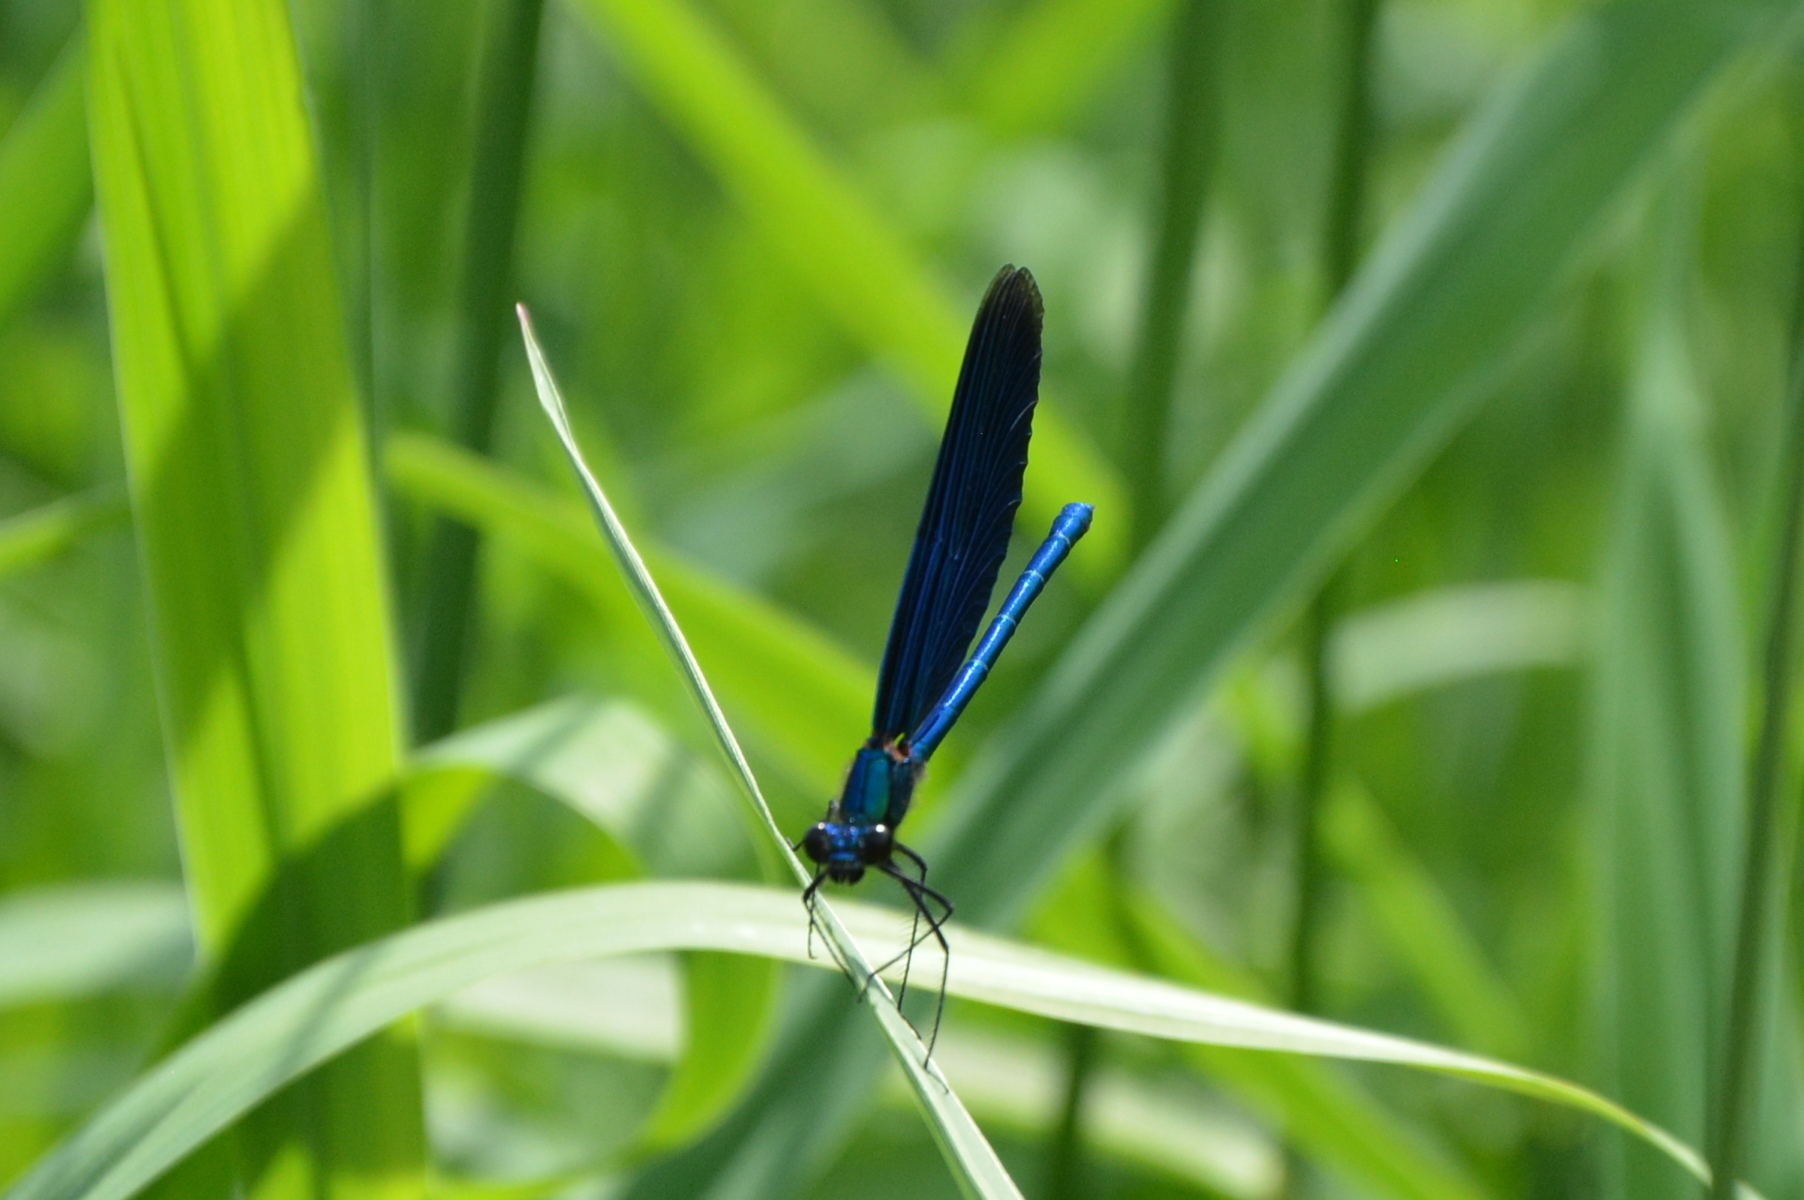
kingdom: Animalia
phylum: Arthropoda
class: Insecta
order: Odonata
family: Calopterygidae
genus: Calopteryx
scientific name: Calopteryx virgo
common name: Beautiful demoiselle
